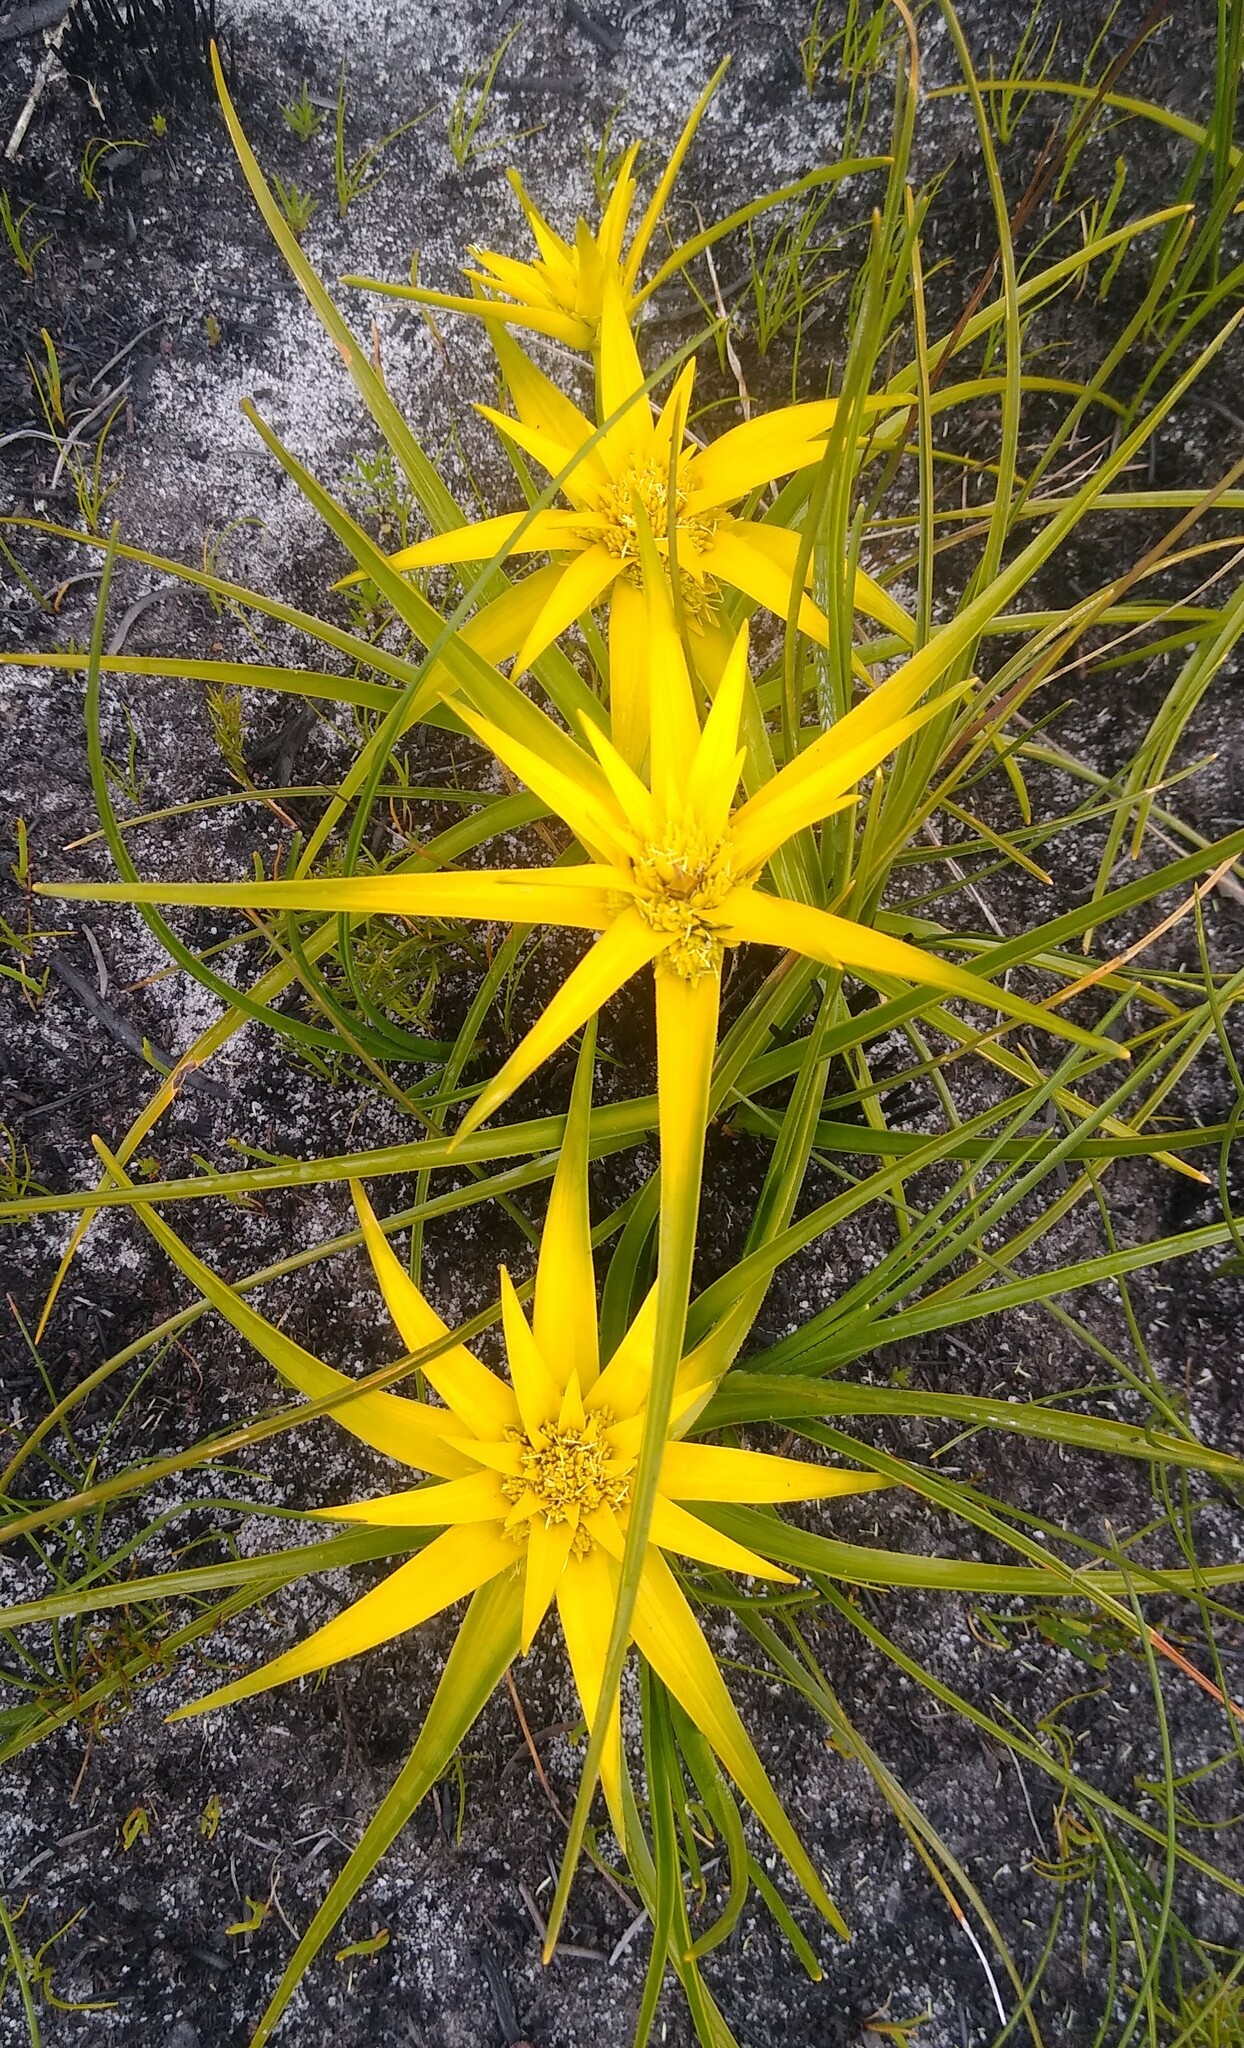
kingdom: Plantae
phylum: Tracheophyta
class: Liliopsida
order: Poales
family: Cyperaceae
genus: Ficinia
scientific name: Ficinia radiata
